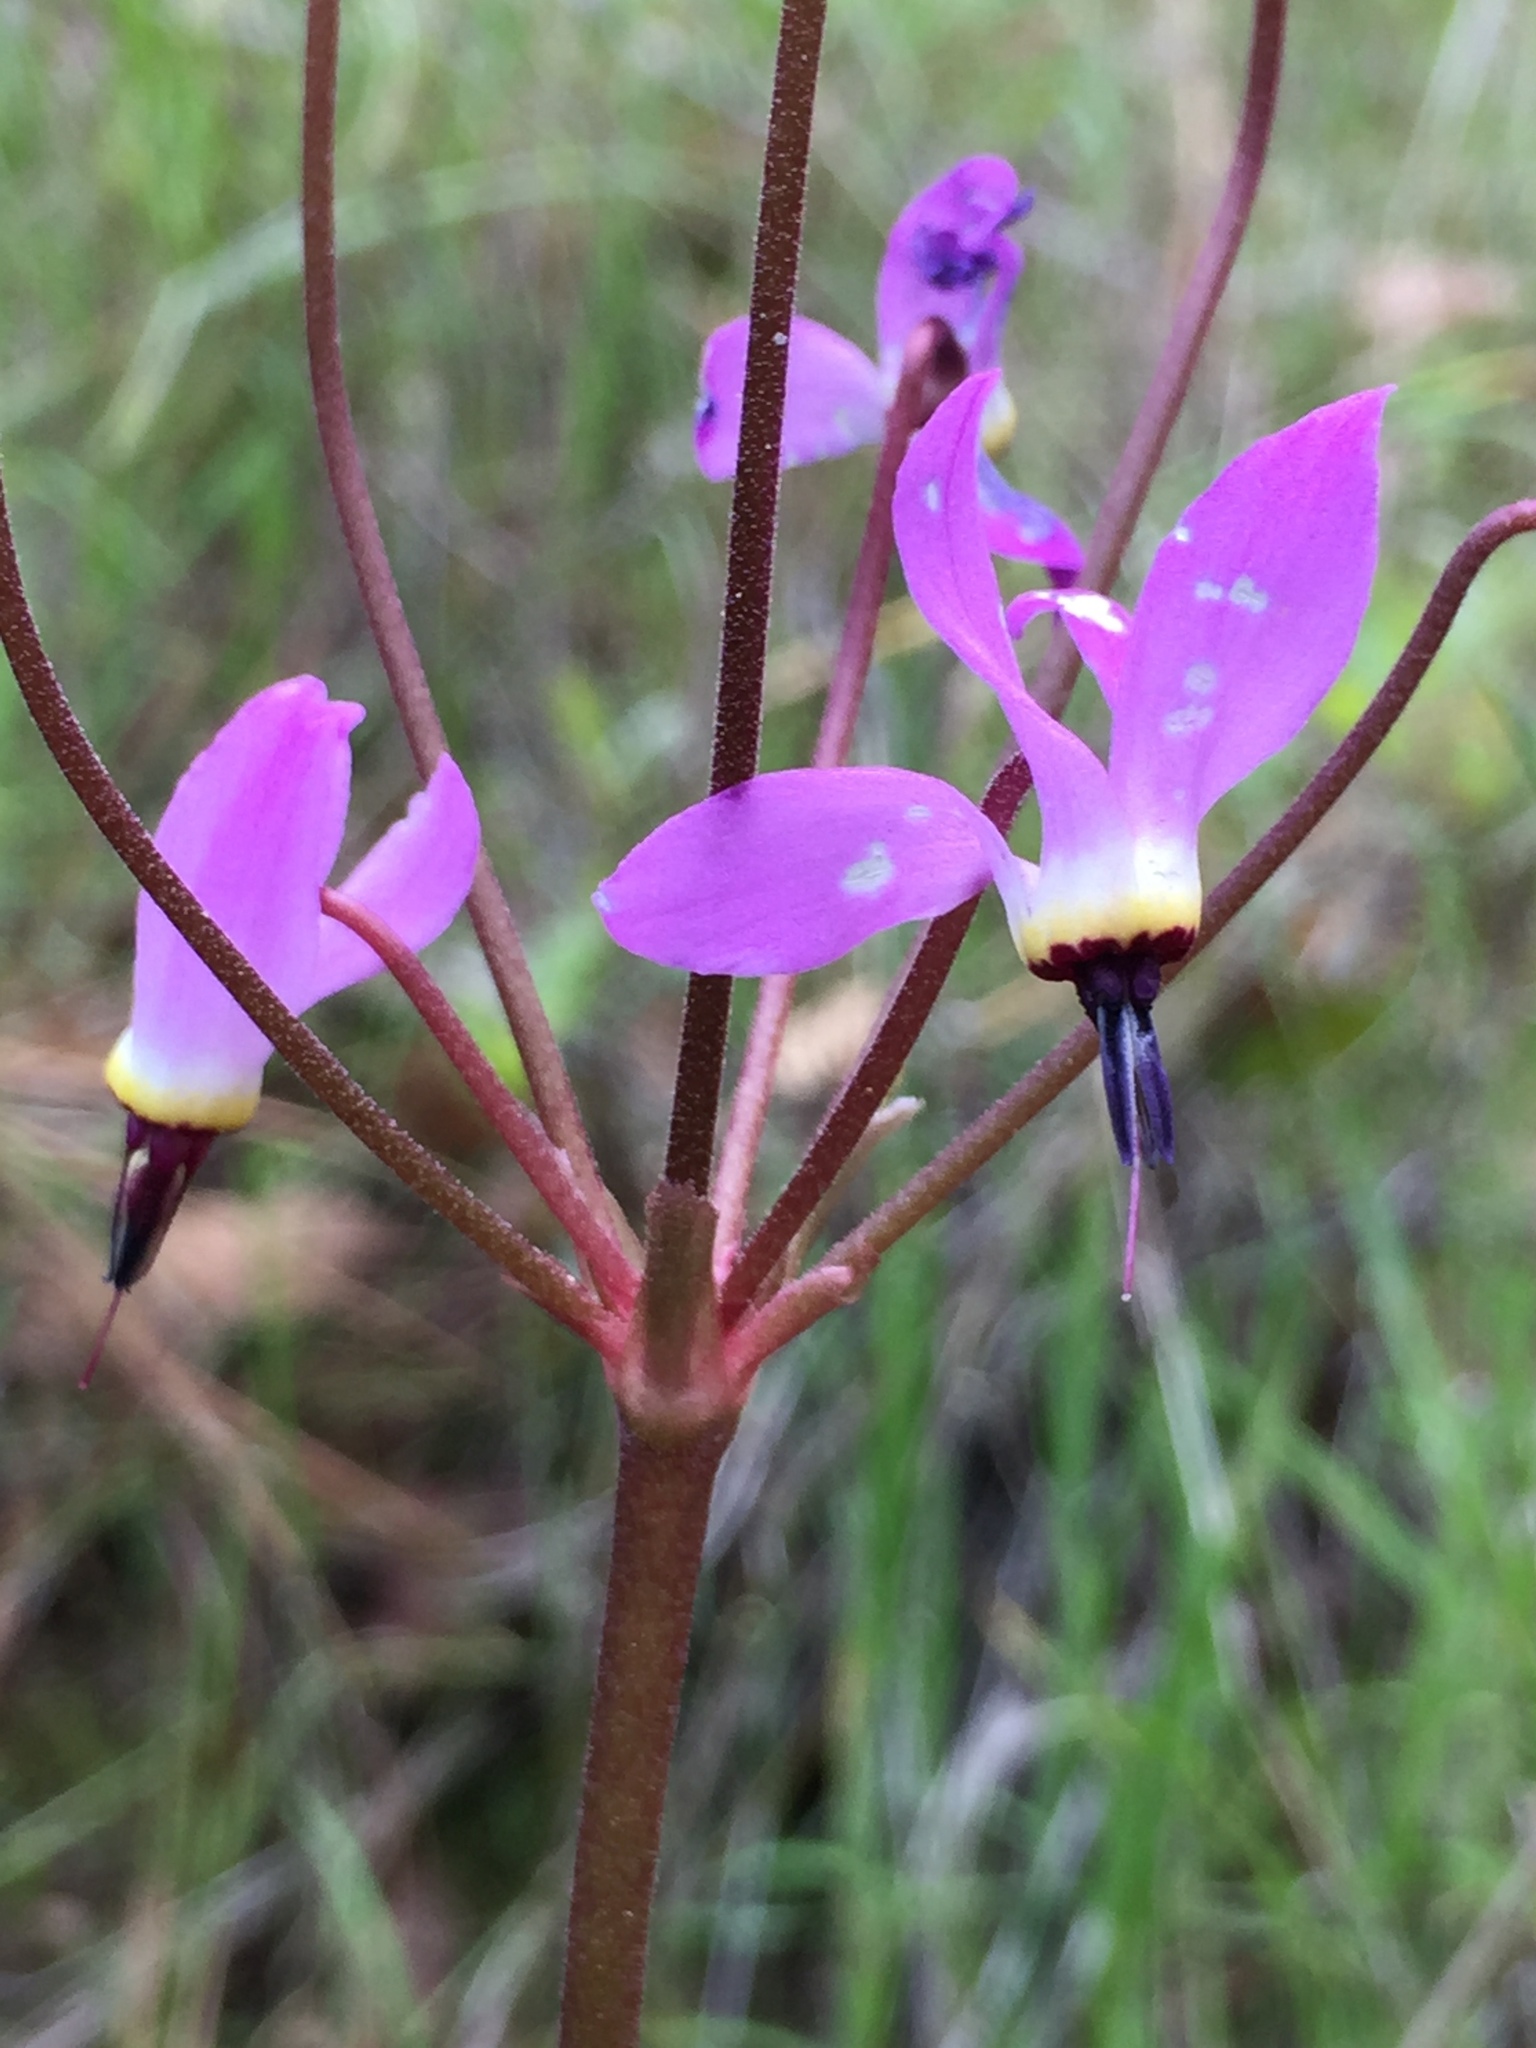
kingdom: Plantae
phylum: Tracheophyta
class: Magnoliopsida
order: Ericales
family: Primulaceae
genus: Dodecatheon
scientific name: Dodecatheon hendersonii
